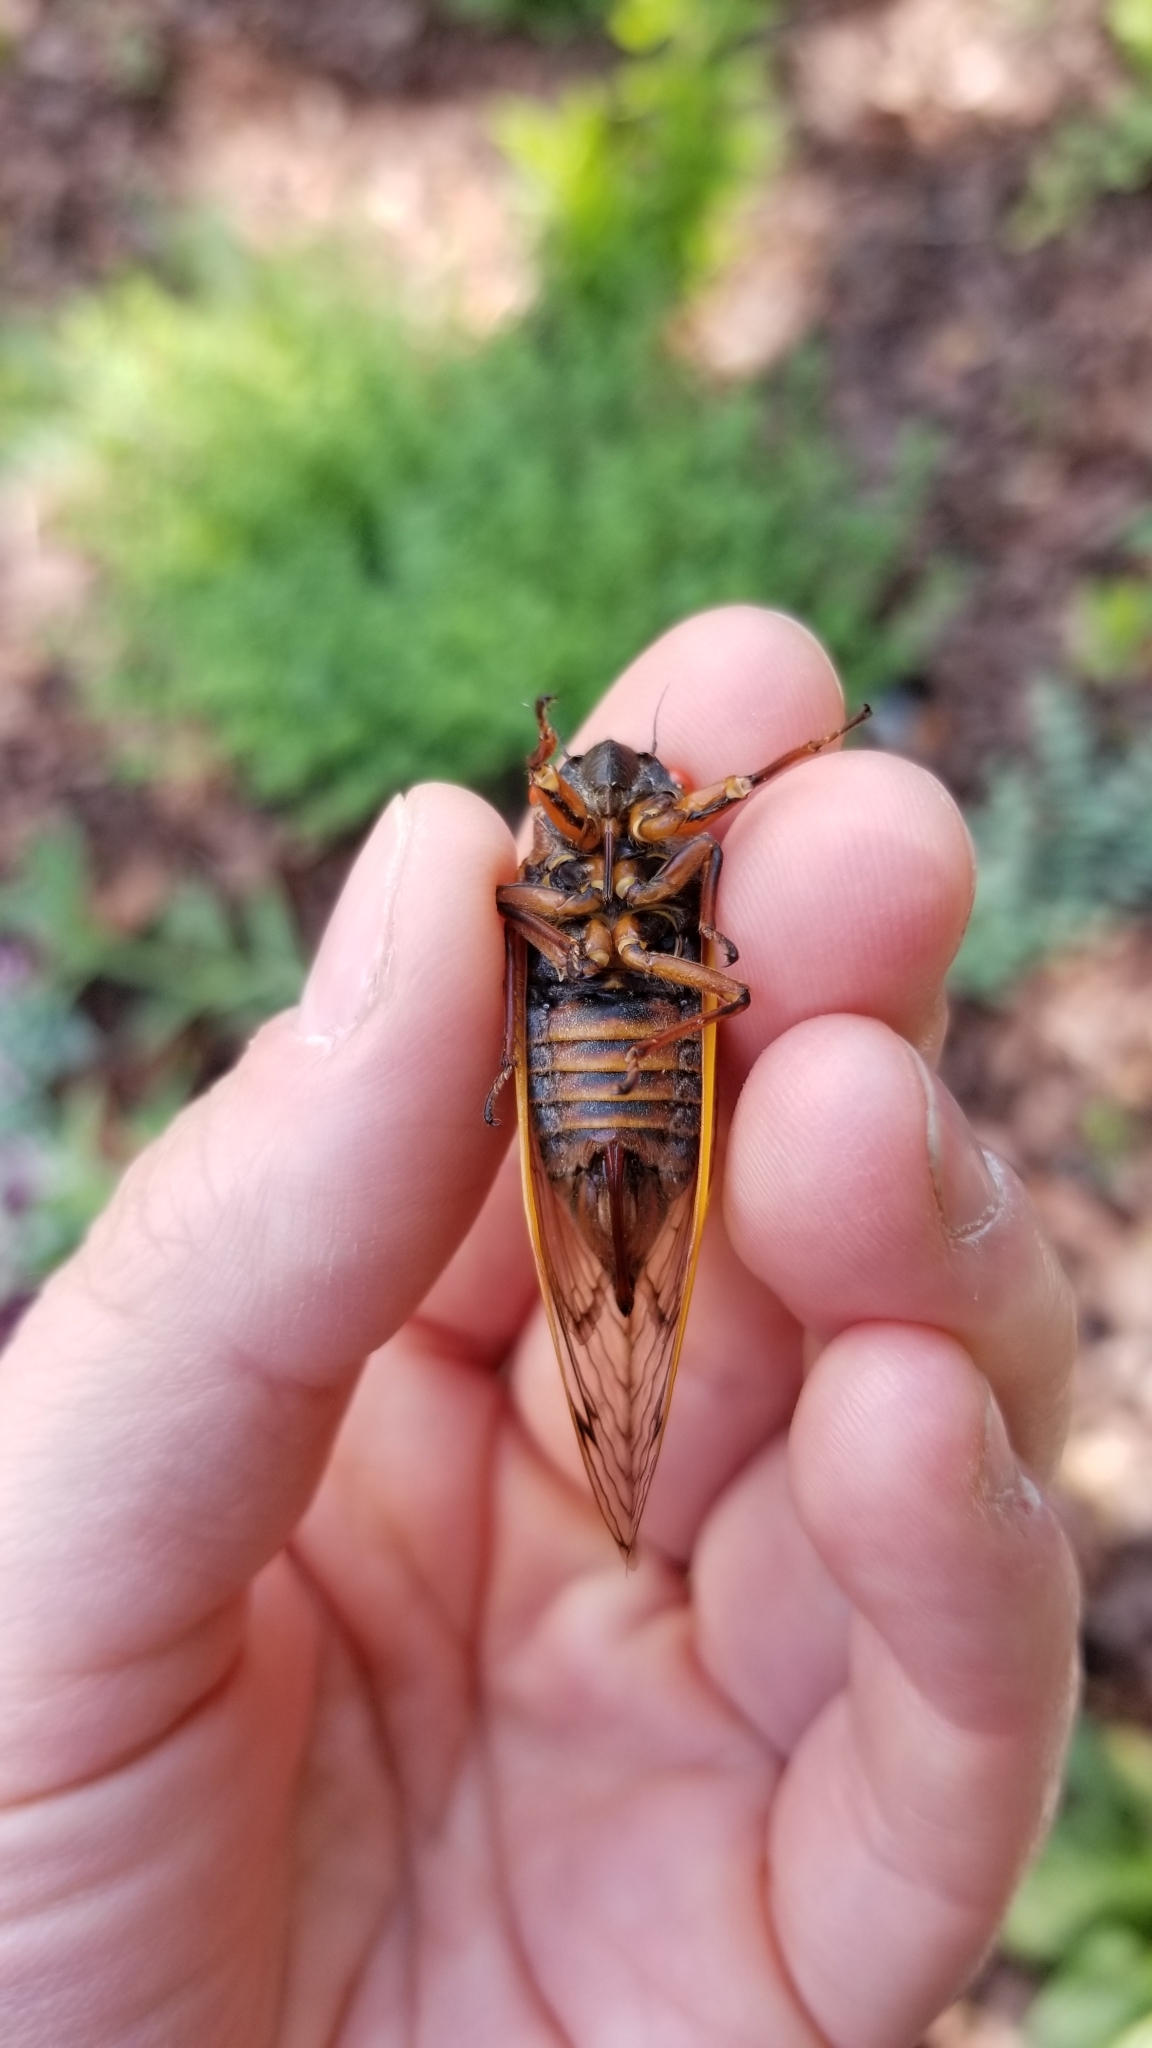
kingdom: Animalia
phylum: Arthropoda
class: Insecta
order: Hemiptera
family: Cicadidae
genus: Magicicada
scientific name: Magicicada septendecim
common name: Periodical cicada
